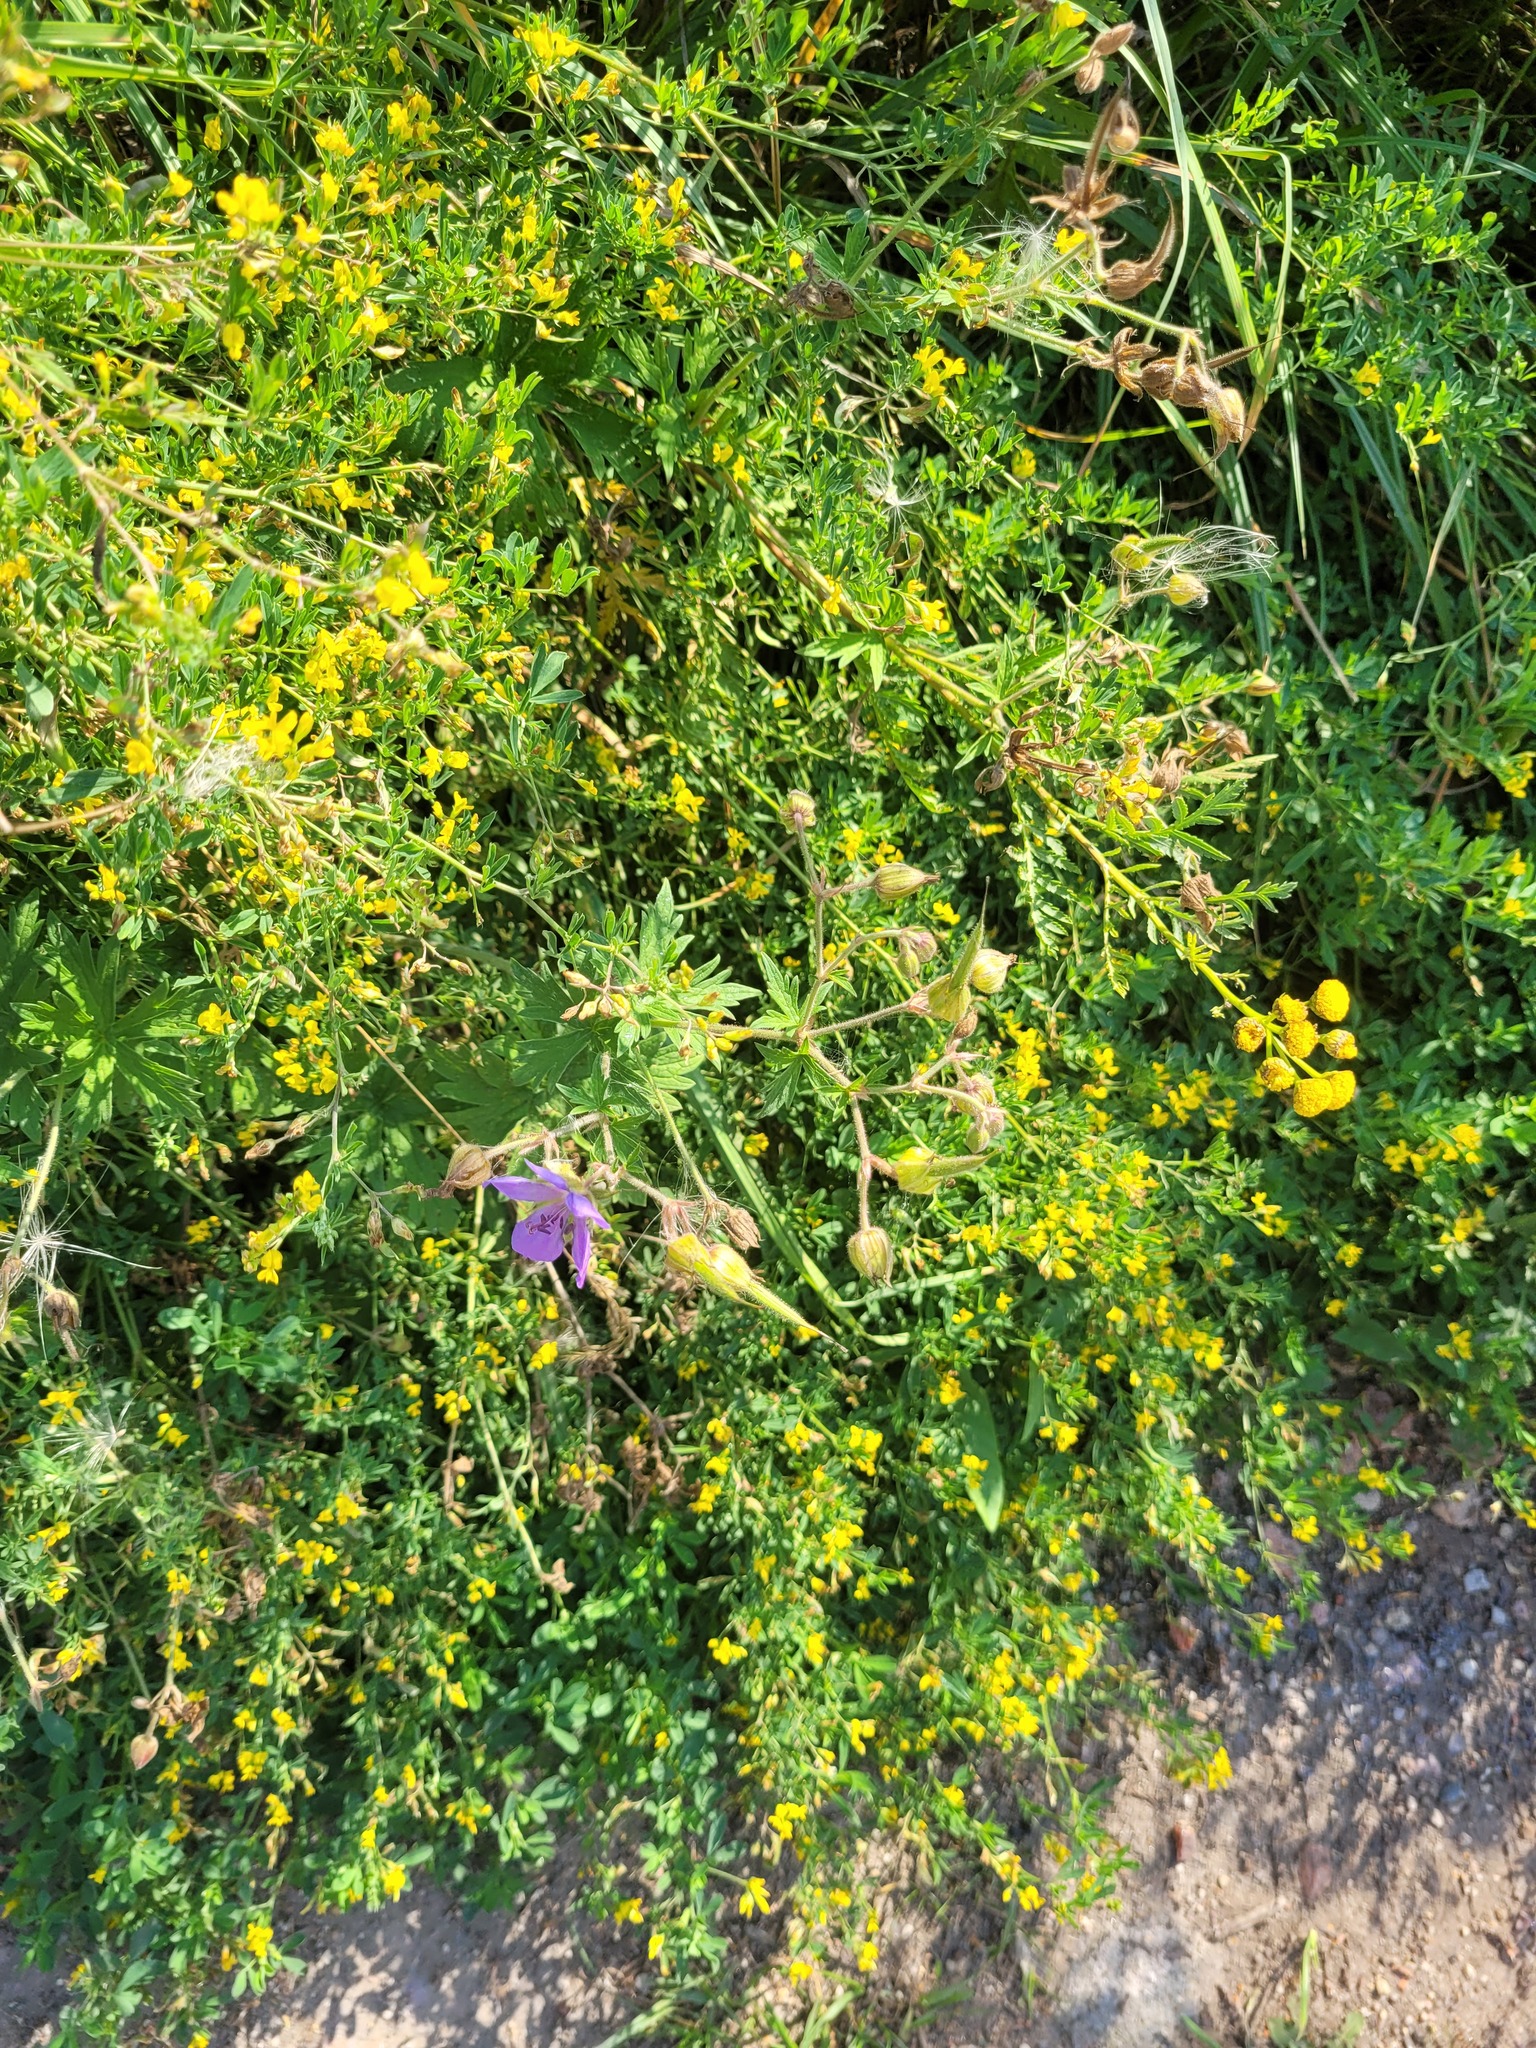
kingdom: Plantae
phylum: Tracheophyta
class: Magnoliopsida
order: Geraniales
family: Geraniaceae
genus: Geranium
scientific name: Geranium pratense
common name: Meadow crane's-bill
